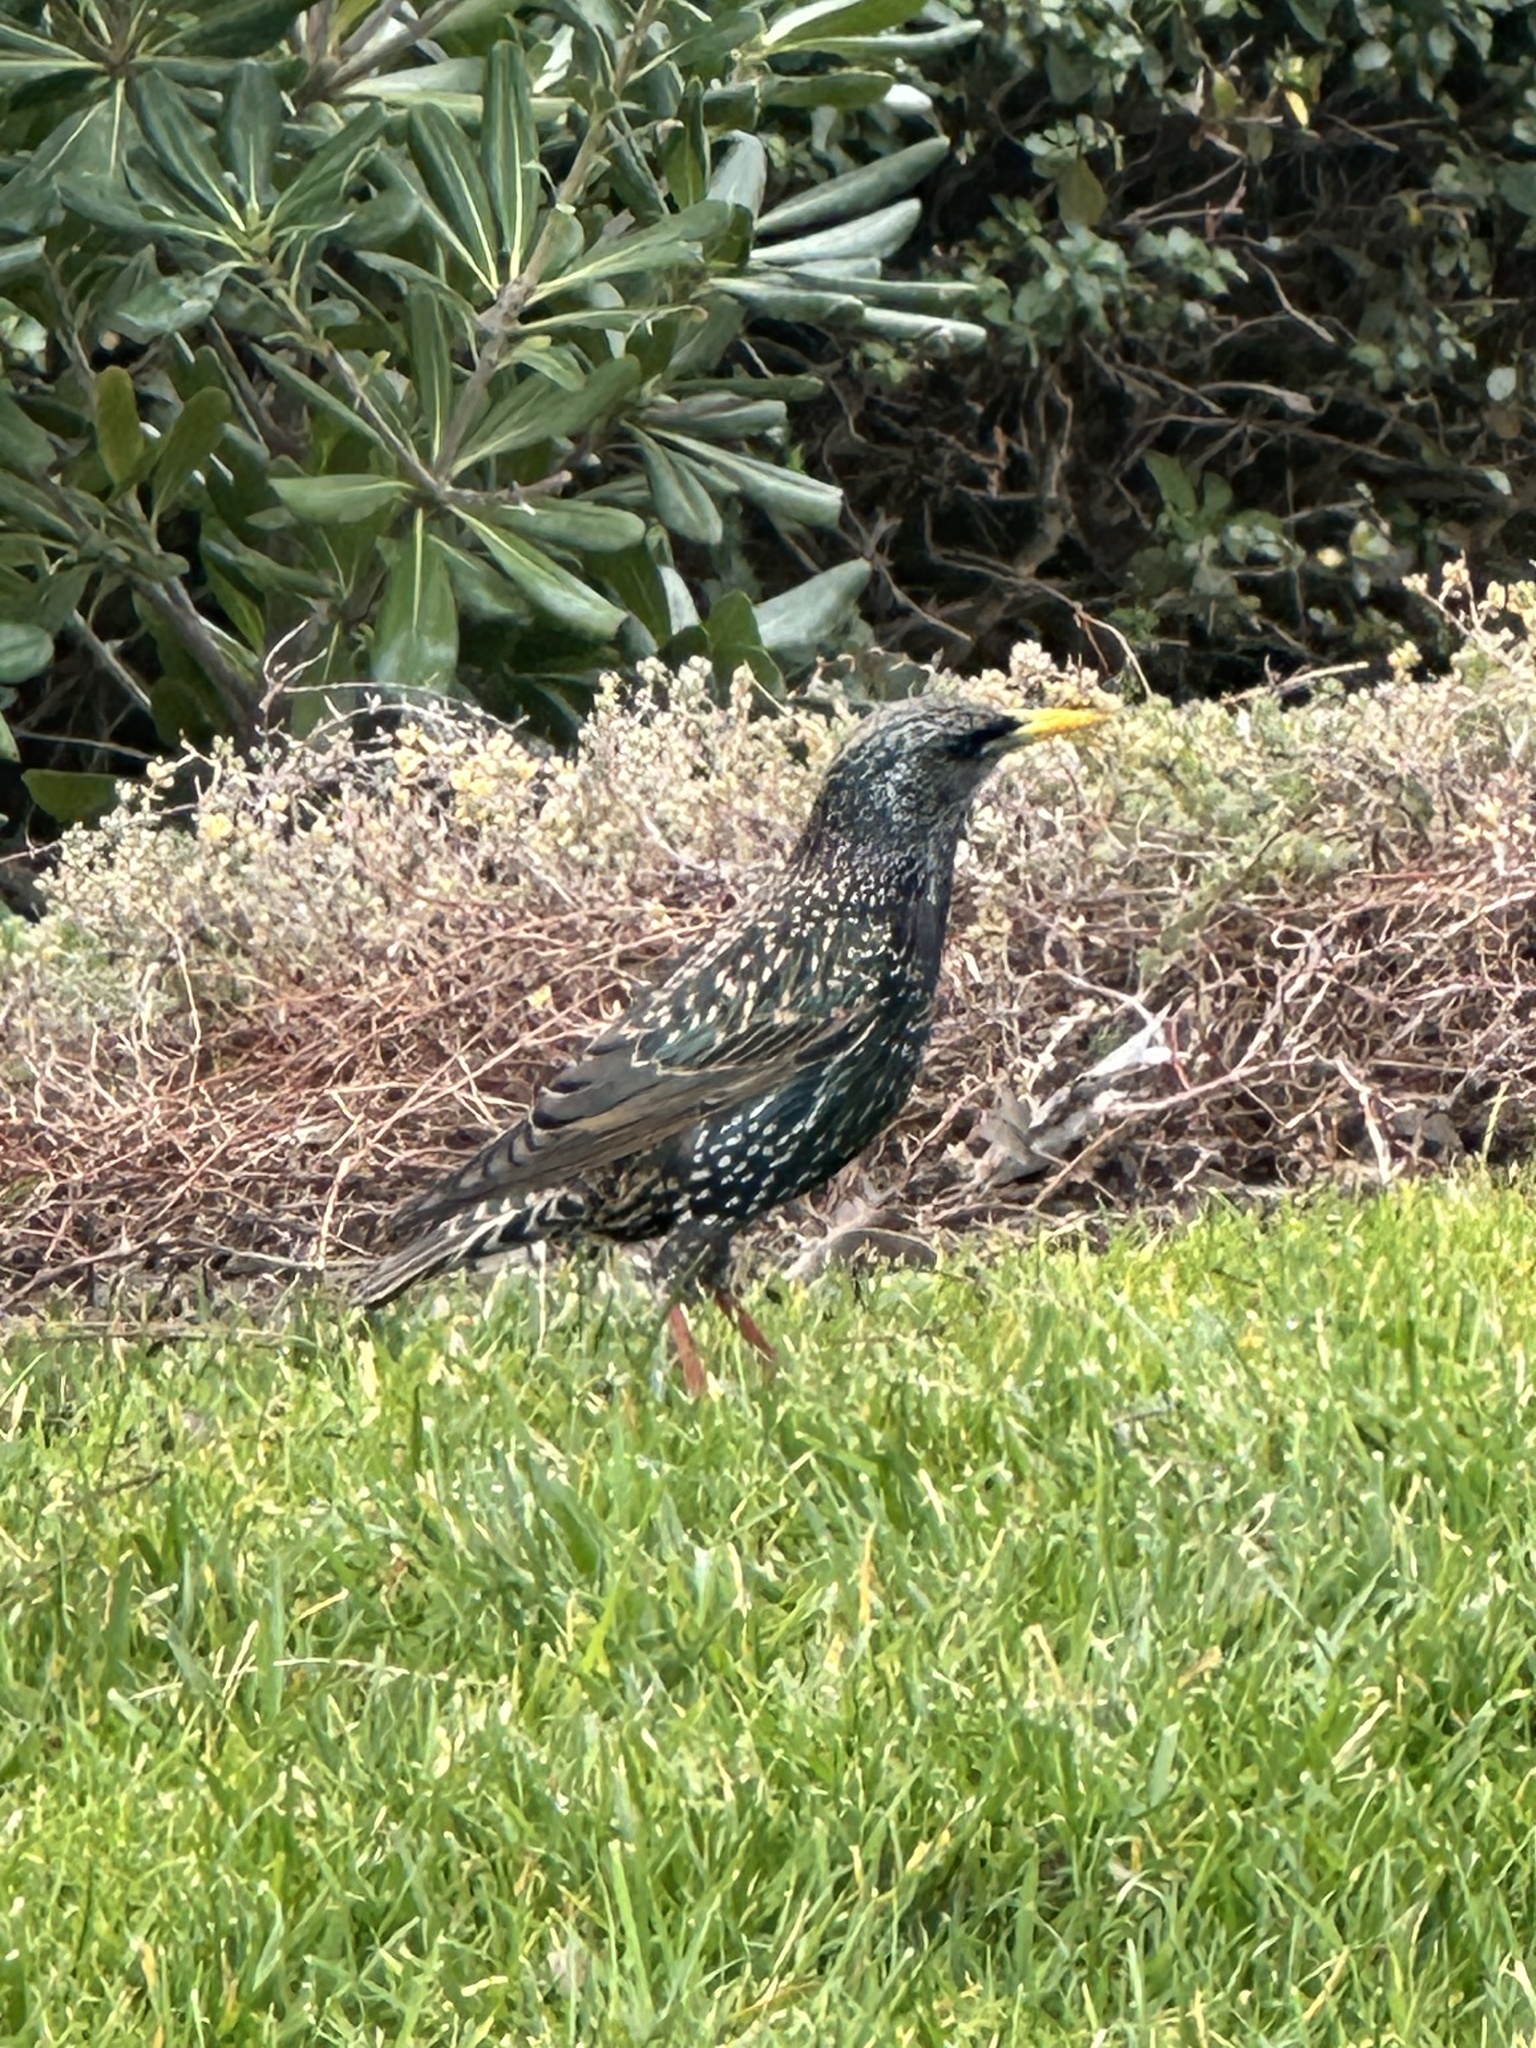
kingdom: Animalia
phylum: Chordata
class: Aves
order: Passeriformes
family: Sturnidae
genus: Sturnus
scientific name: Sturnus vulgaris
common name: Common starling
